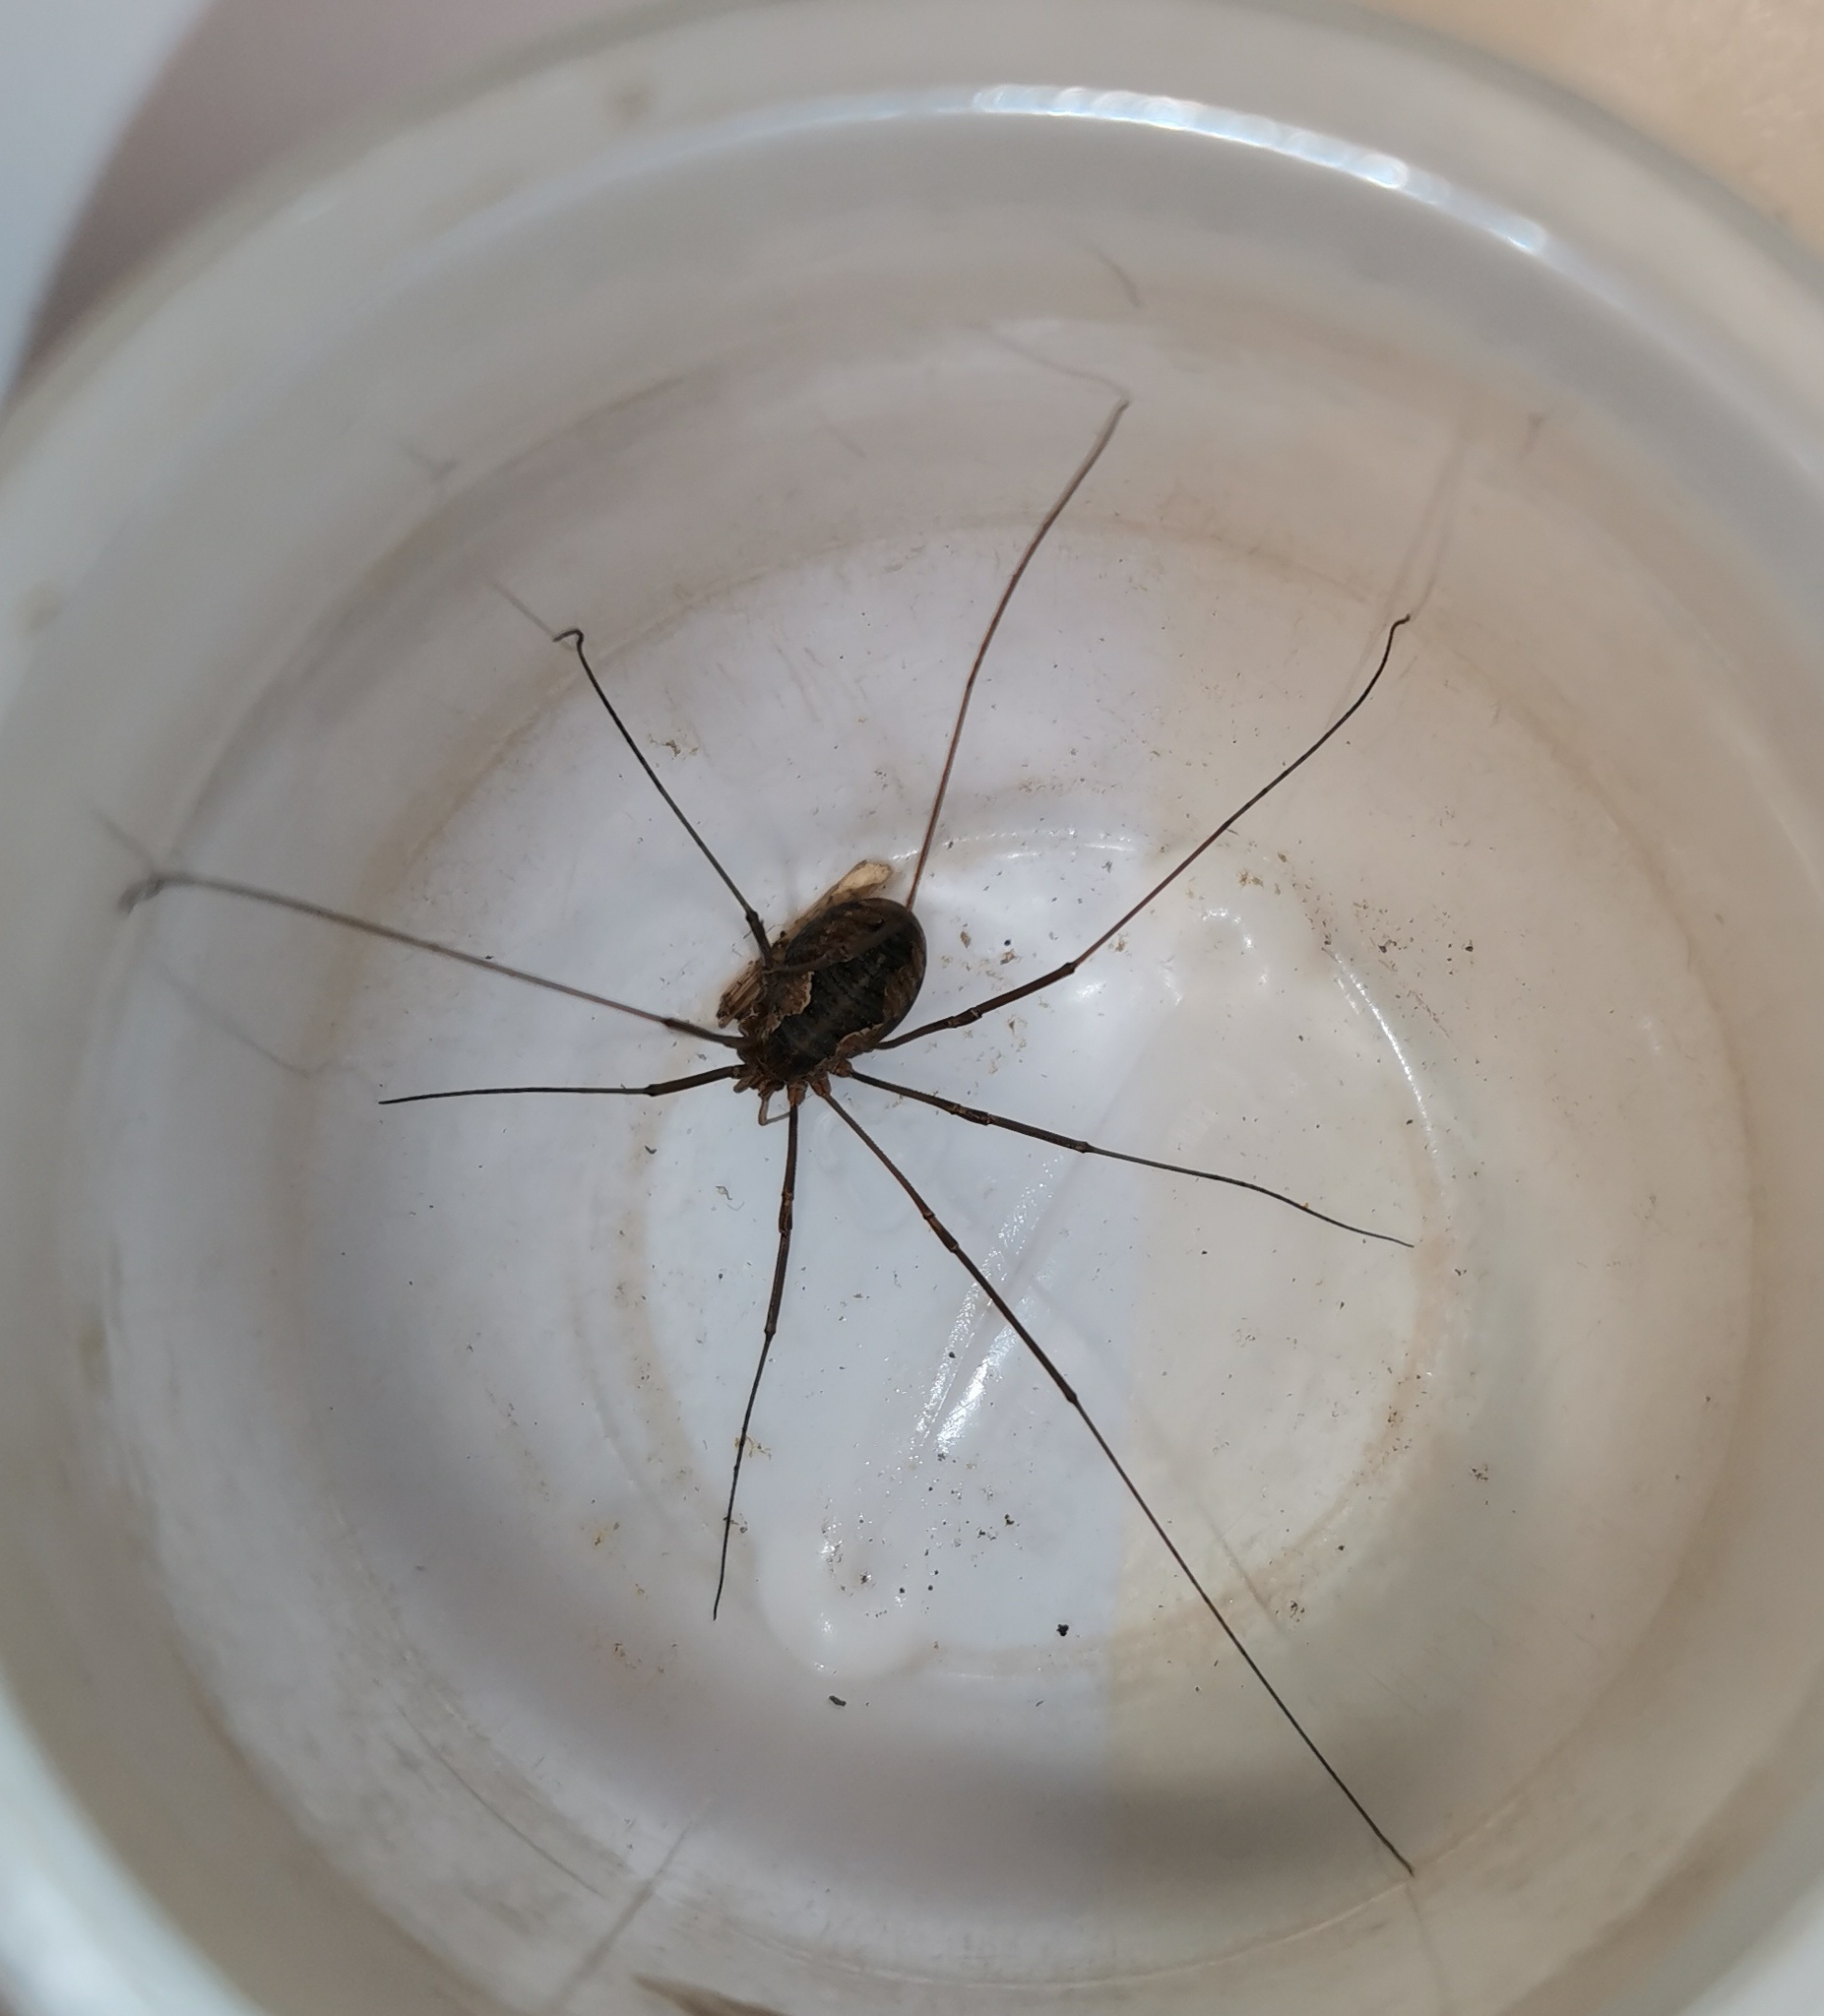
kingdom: Animalia
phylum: Arthropoda
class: Arachnida
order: Opiliones
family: Phalangiidae
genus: Phalangium
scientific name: Phalangium opilio
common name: Daddy longleg
